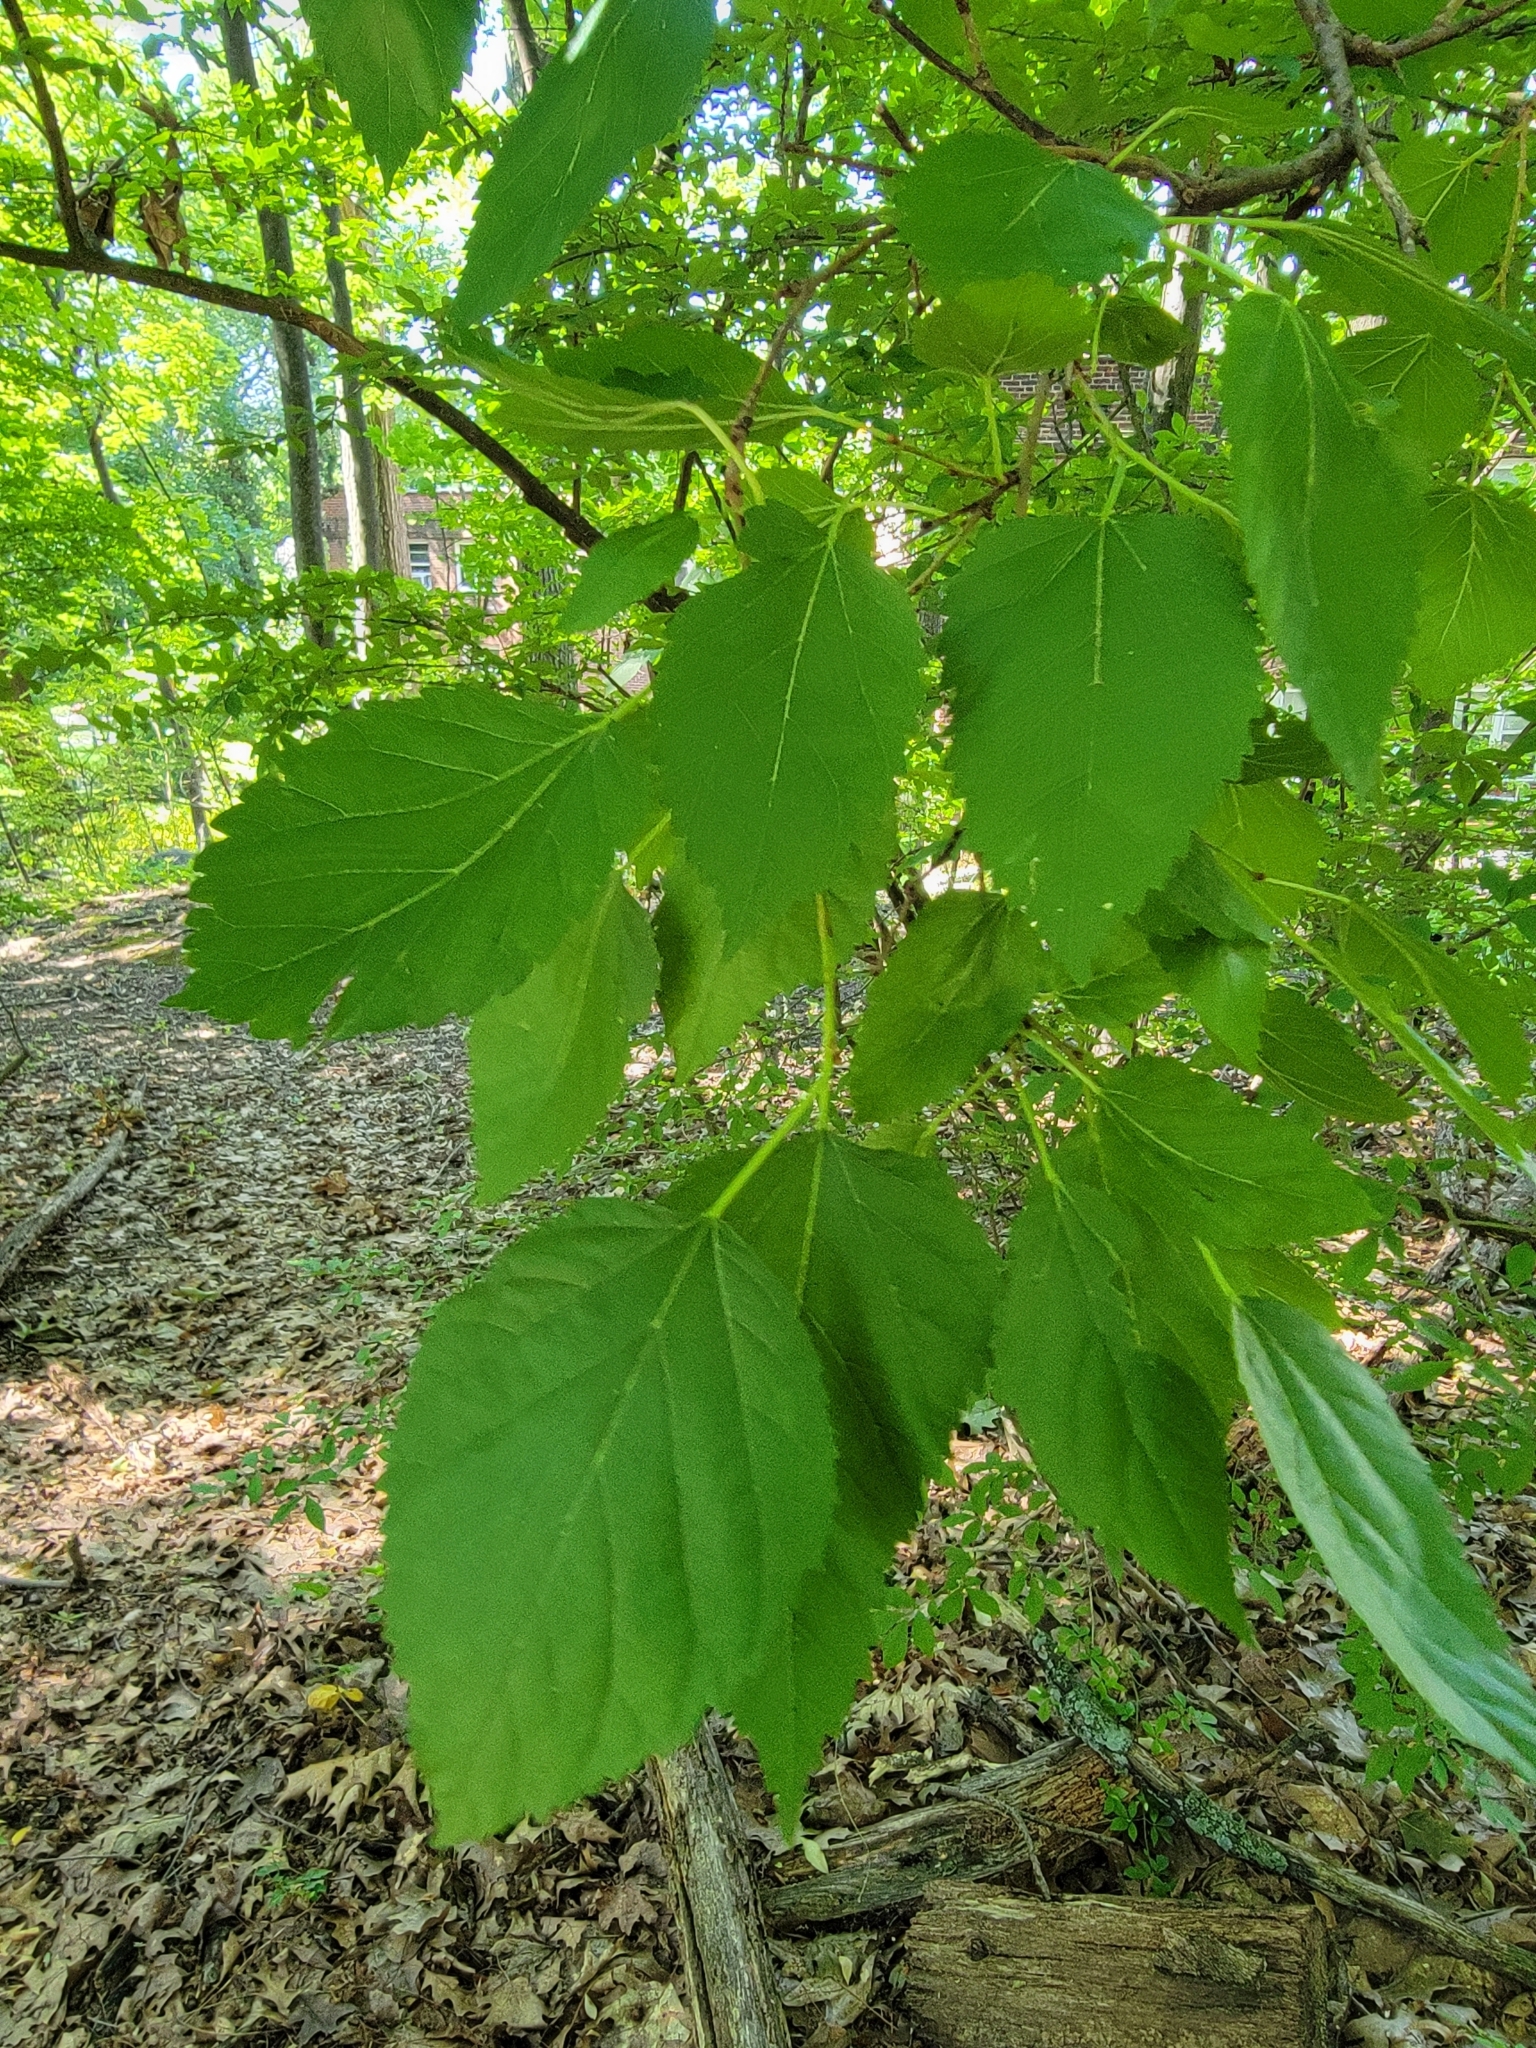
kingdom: Plantae
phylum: Tracheophyta
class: Magnoliopsida
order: Rosales
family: Moraceae
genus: Morus
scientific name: Morus alba
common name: White mulberry
